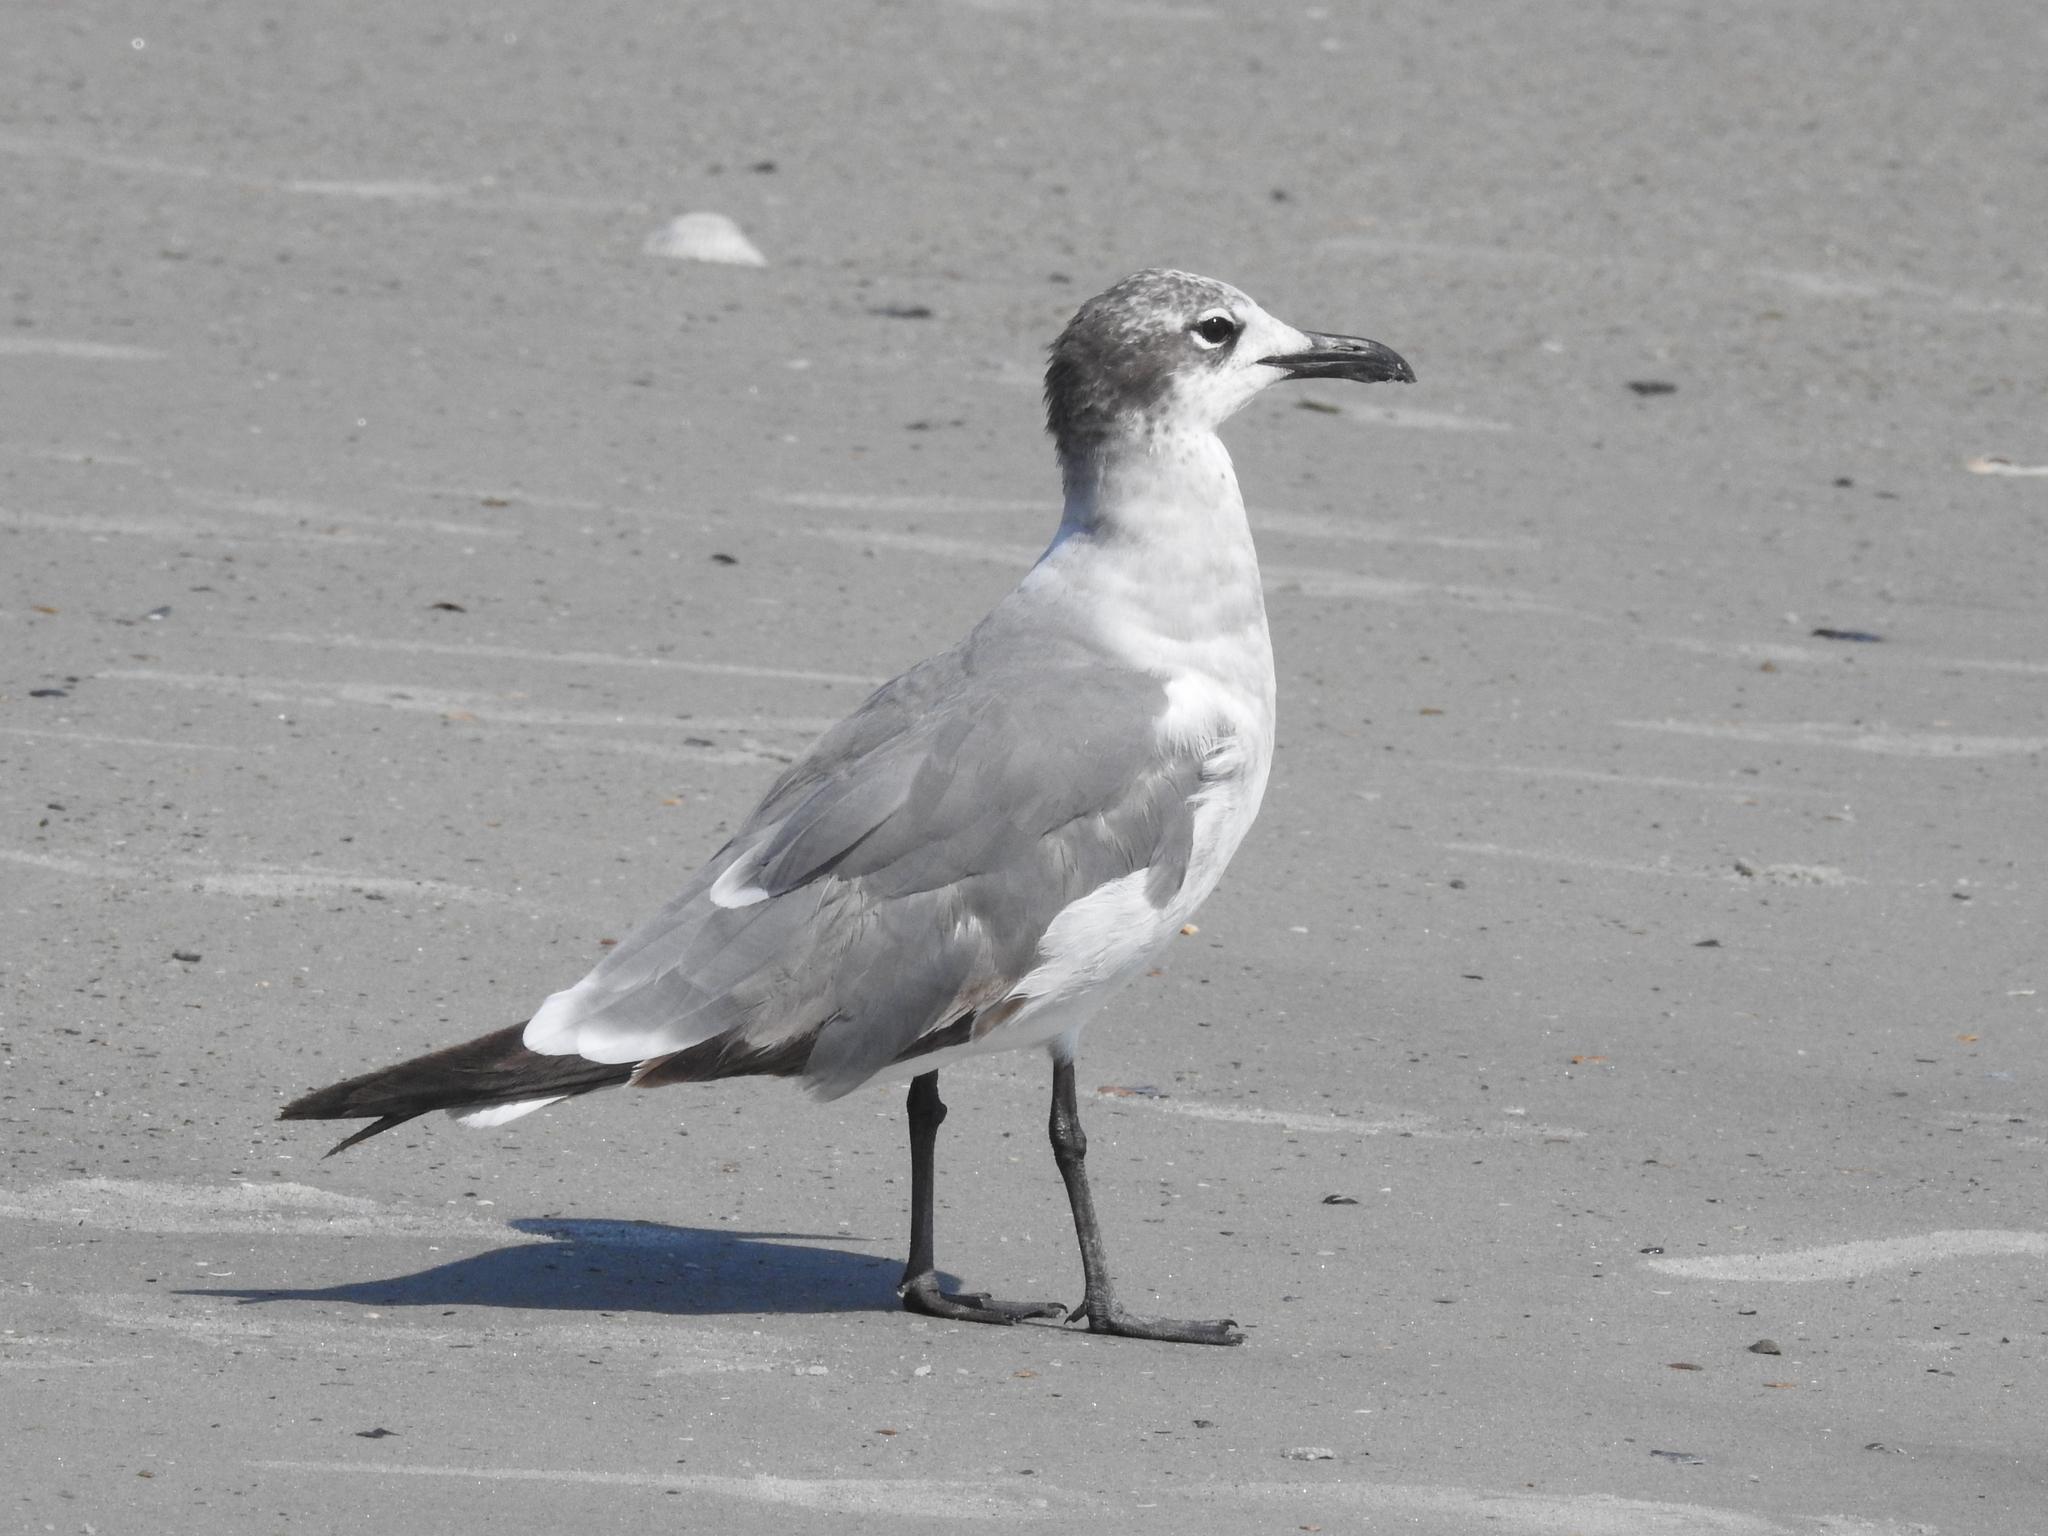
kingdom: Animalia
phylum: Chordata
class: Aves
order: Charadriiformes
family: Laridae
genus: Leucophaeus
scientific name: Leucophaeus atricilla
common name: Laughing gull
